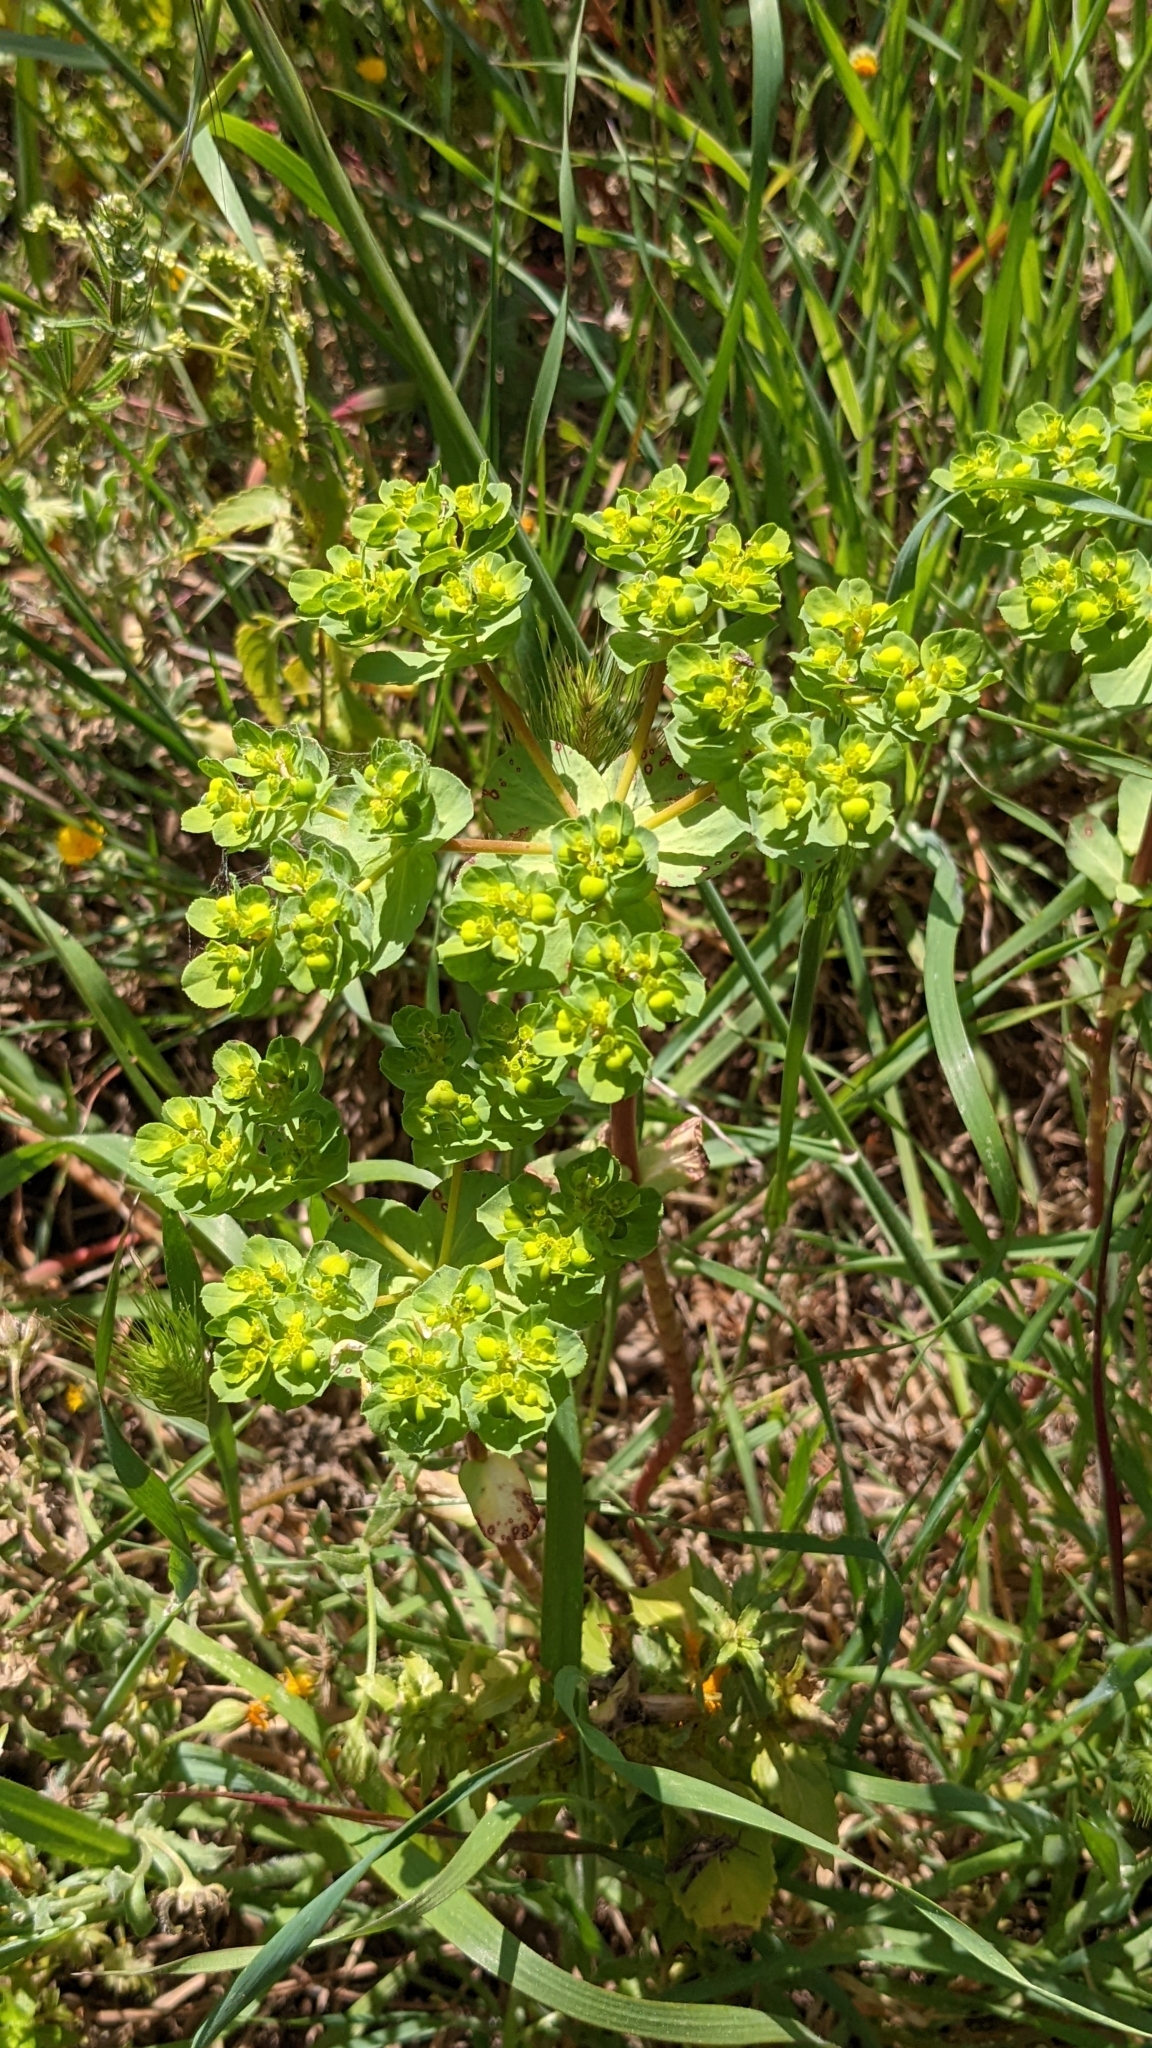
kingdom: Plantae
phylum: Tracheophyta
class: Magnoliopsida
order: Malpighiales
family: Euphorbiaceae
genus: Euphorbia
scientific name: Euphorbia helioscopia
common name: Sun spurge
